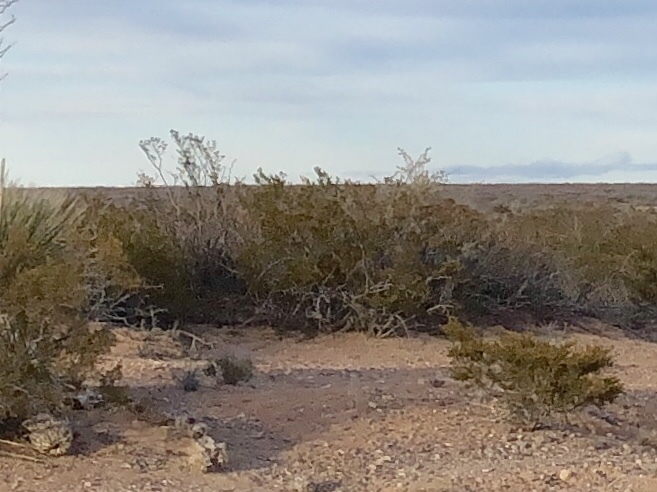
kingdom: Plantae
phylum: Tracheophyta
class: Magnoliopsida
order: Zygophyllales
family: Zygophyllaceae
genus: Larrea
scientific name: Larrea tridentata
